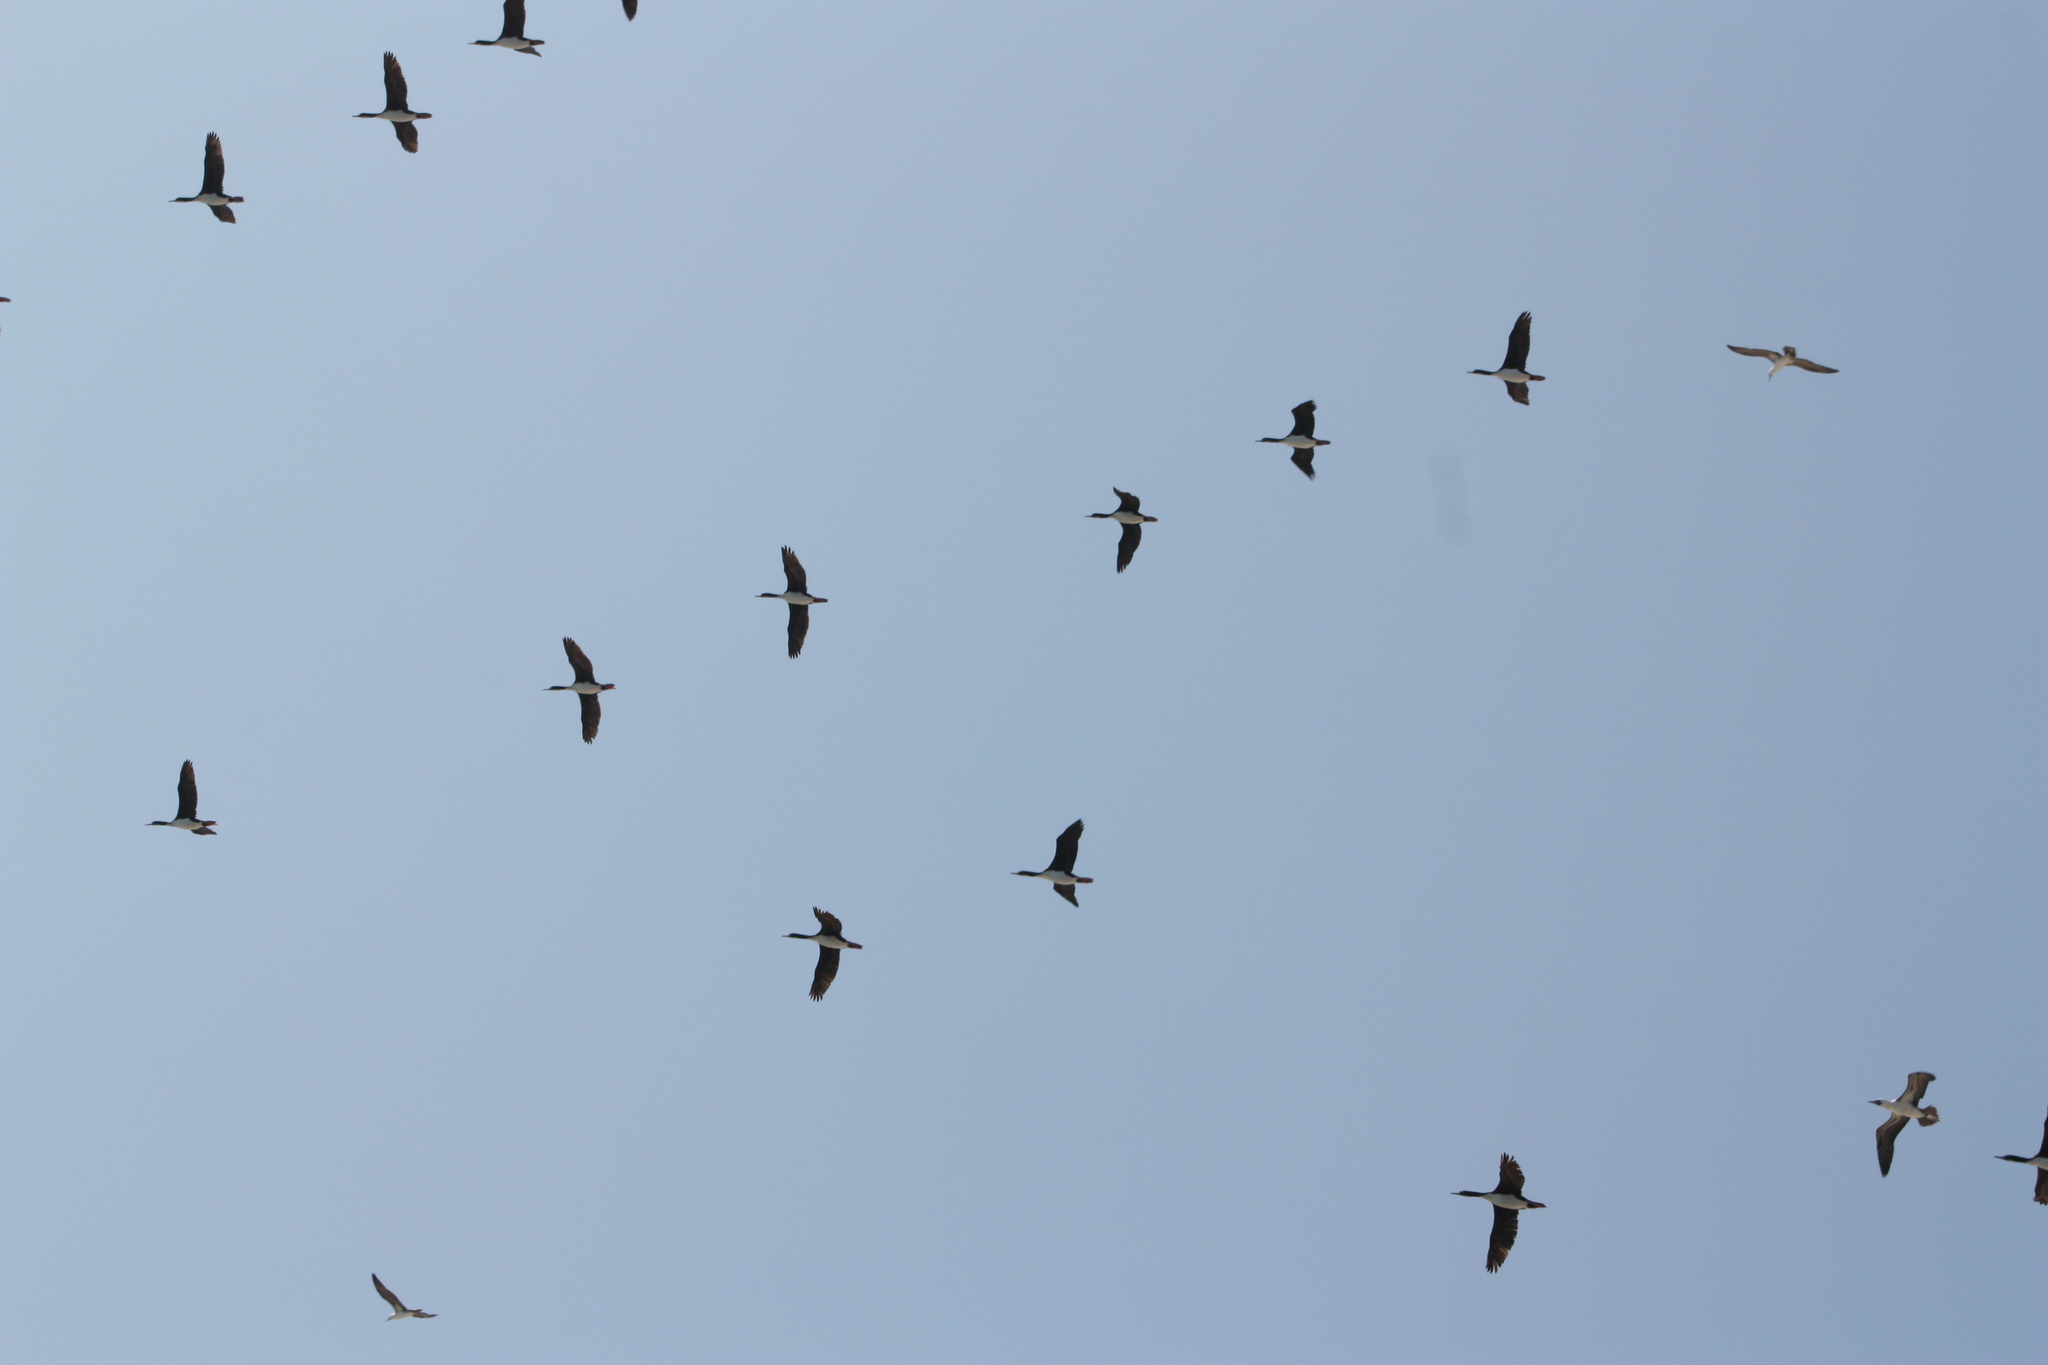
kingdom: Animalia
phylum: Chordata
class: Aves
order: Suliformes
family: Phalacrocoracidae
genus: Leucocarbo
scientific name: Leucocarbo bougainvillii
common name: Guanay cormorant
